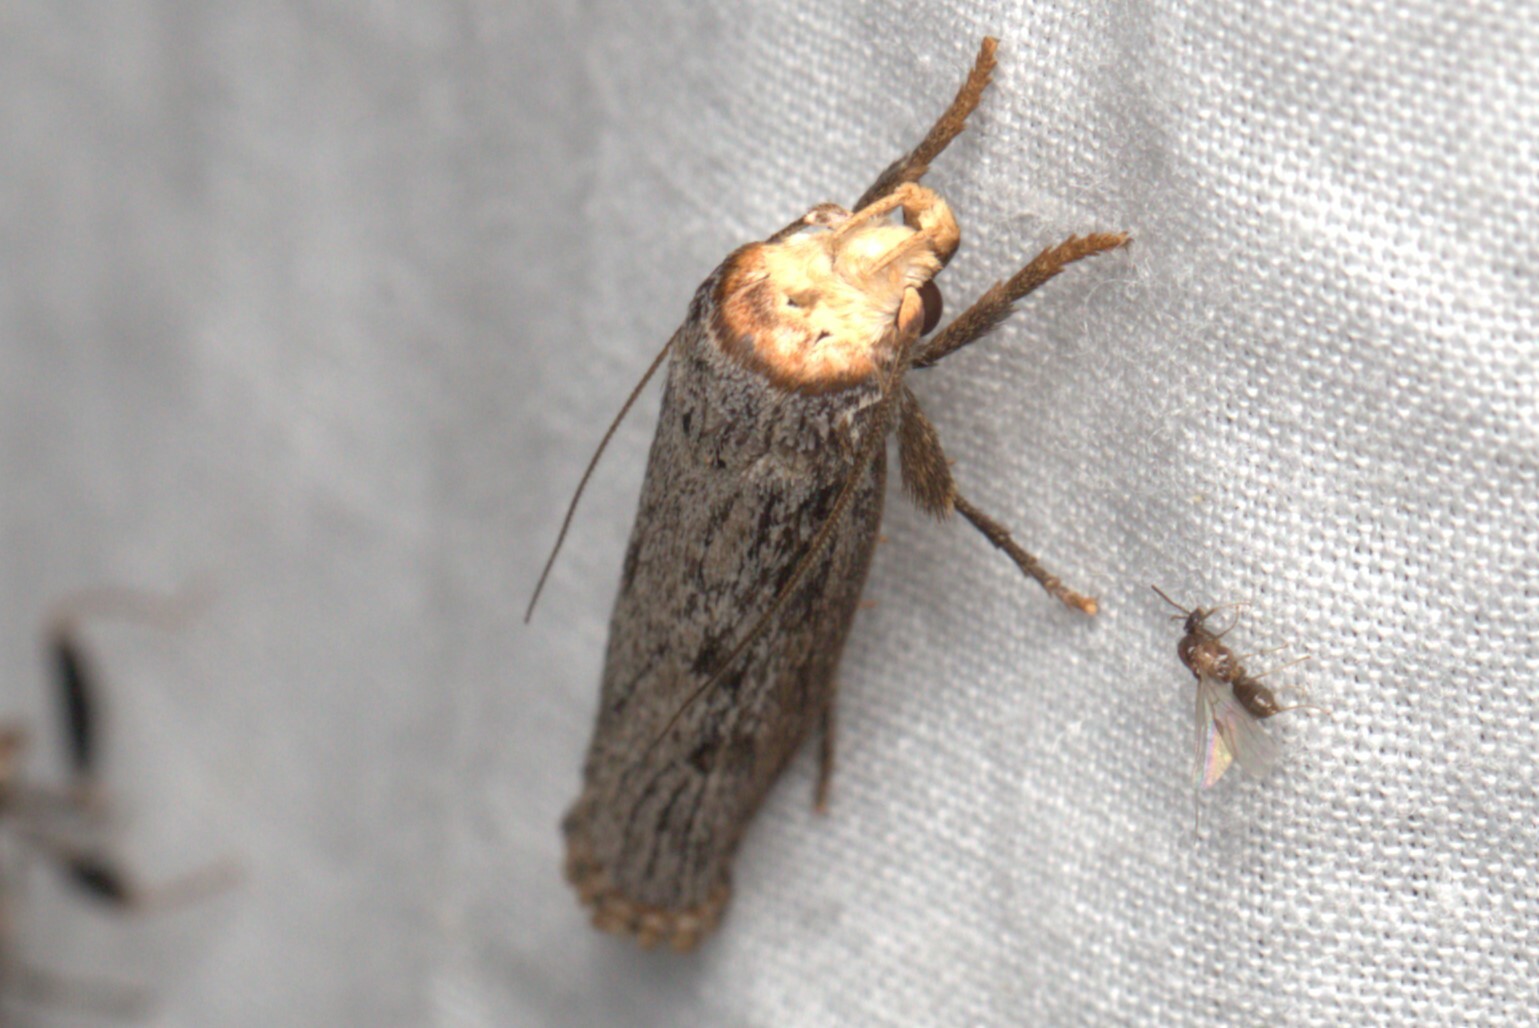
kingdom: Animalia
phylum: Arthropoda
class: Insecta
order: Lepidoptera
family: Xyloryctidae
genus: Thymiatris
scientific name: Thymiatris cephalochra
